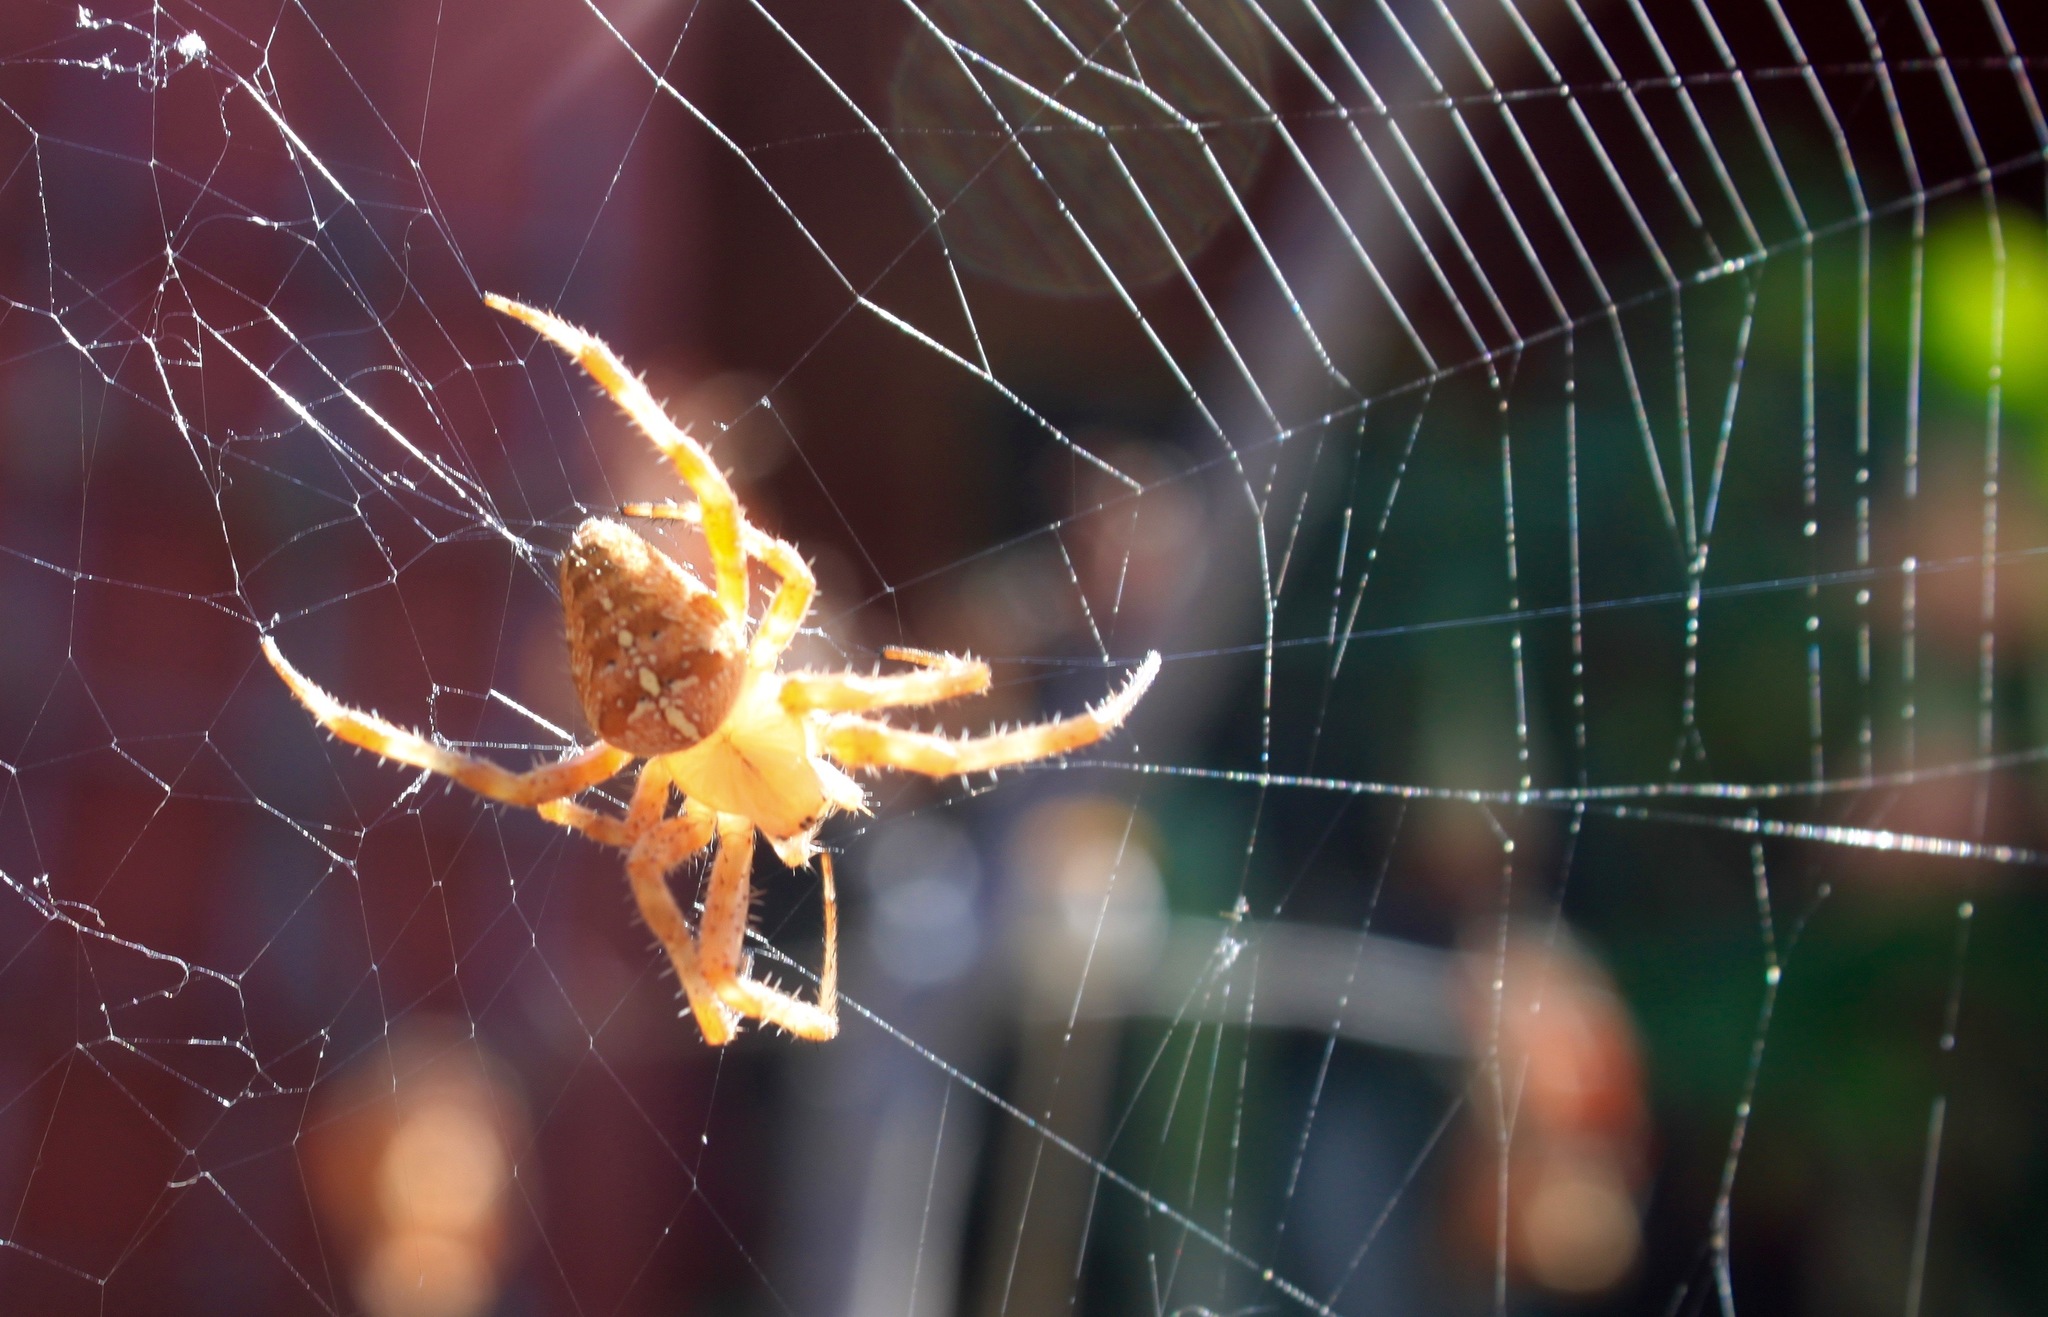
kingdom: Animalia
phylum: Arthropoda
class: Arachnida
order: Araneae
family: Araneidae
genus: Araneus
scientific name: Araneus diadematus
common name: Cross orbweaver
